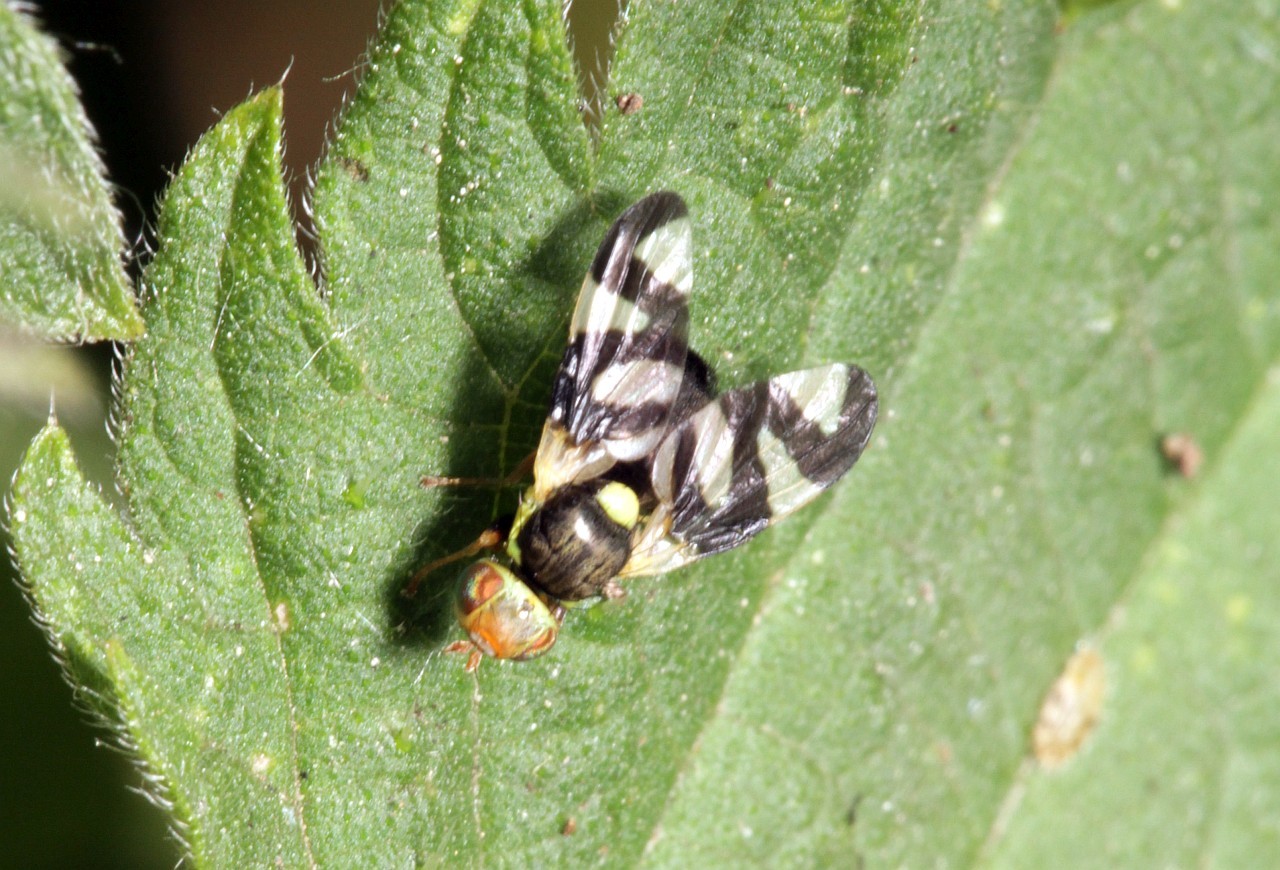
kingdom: Animalia
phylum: Arthropoda
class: Insecta
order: Diptera
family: Tephritidae
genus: Urophora
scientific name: Urophora cardui
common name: Fruit fly
